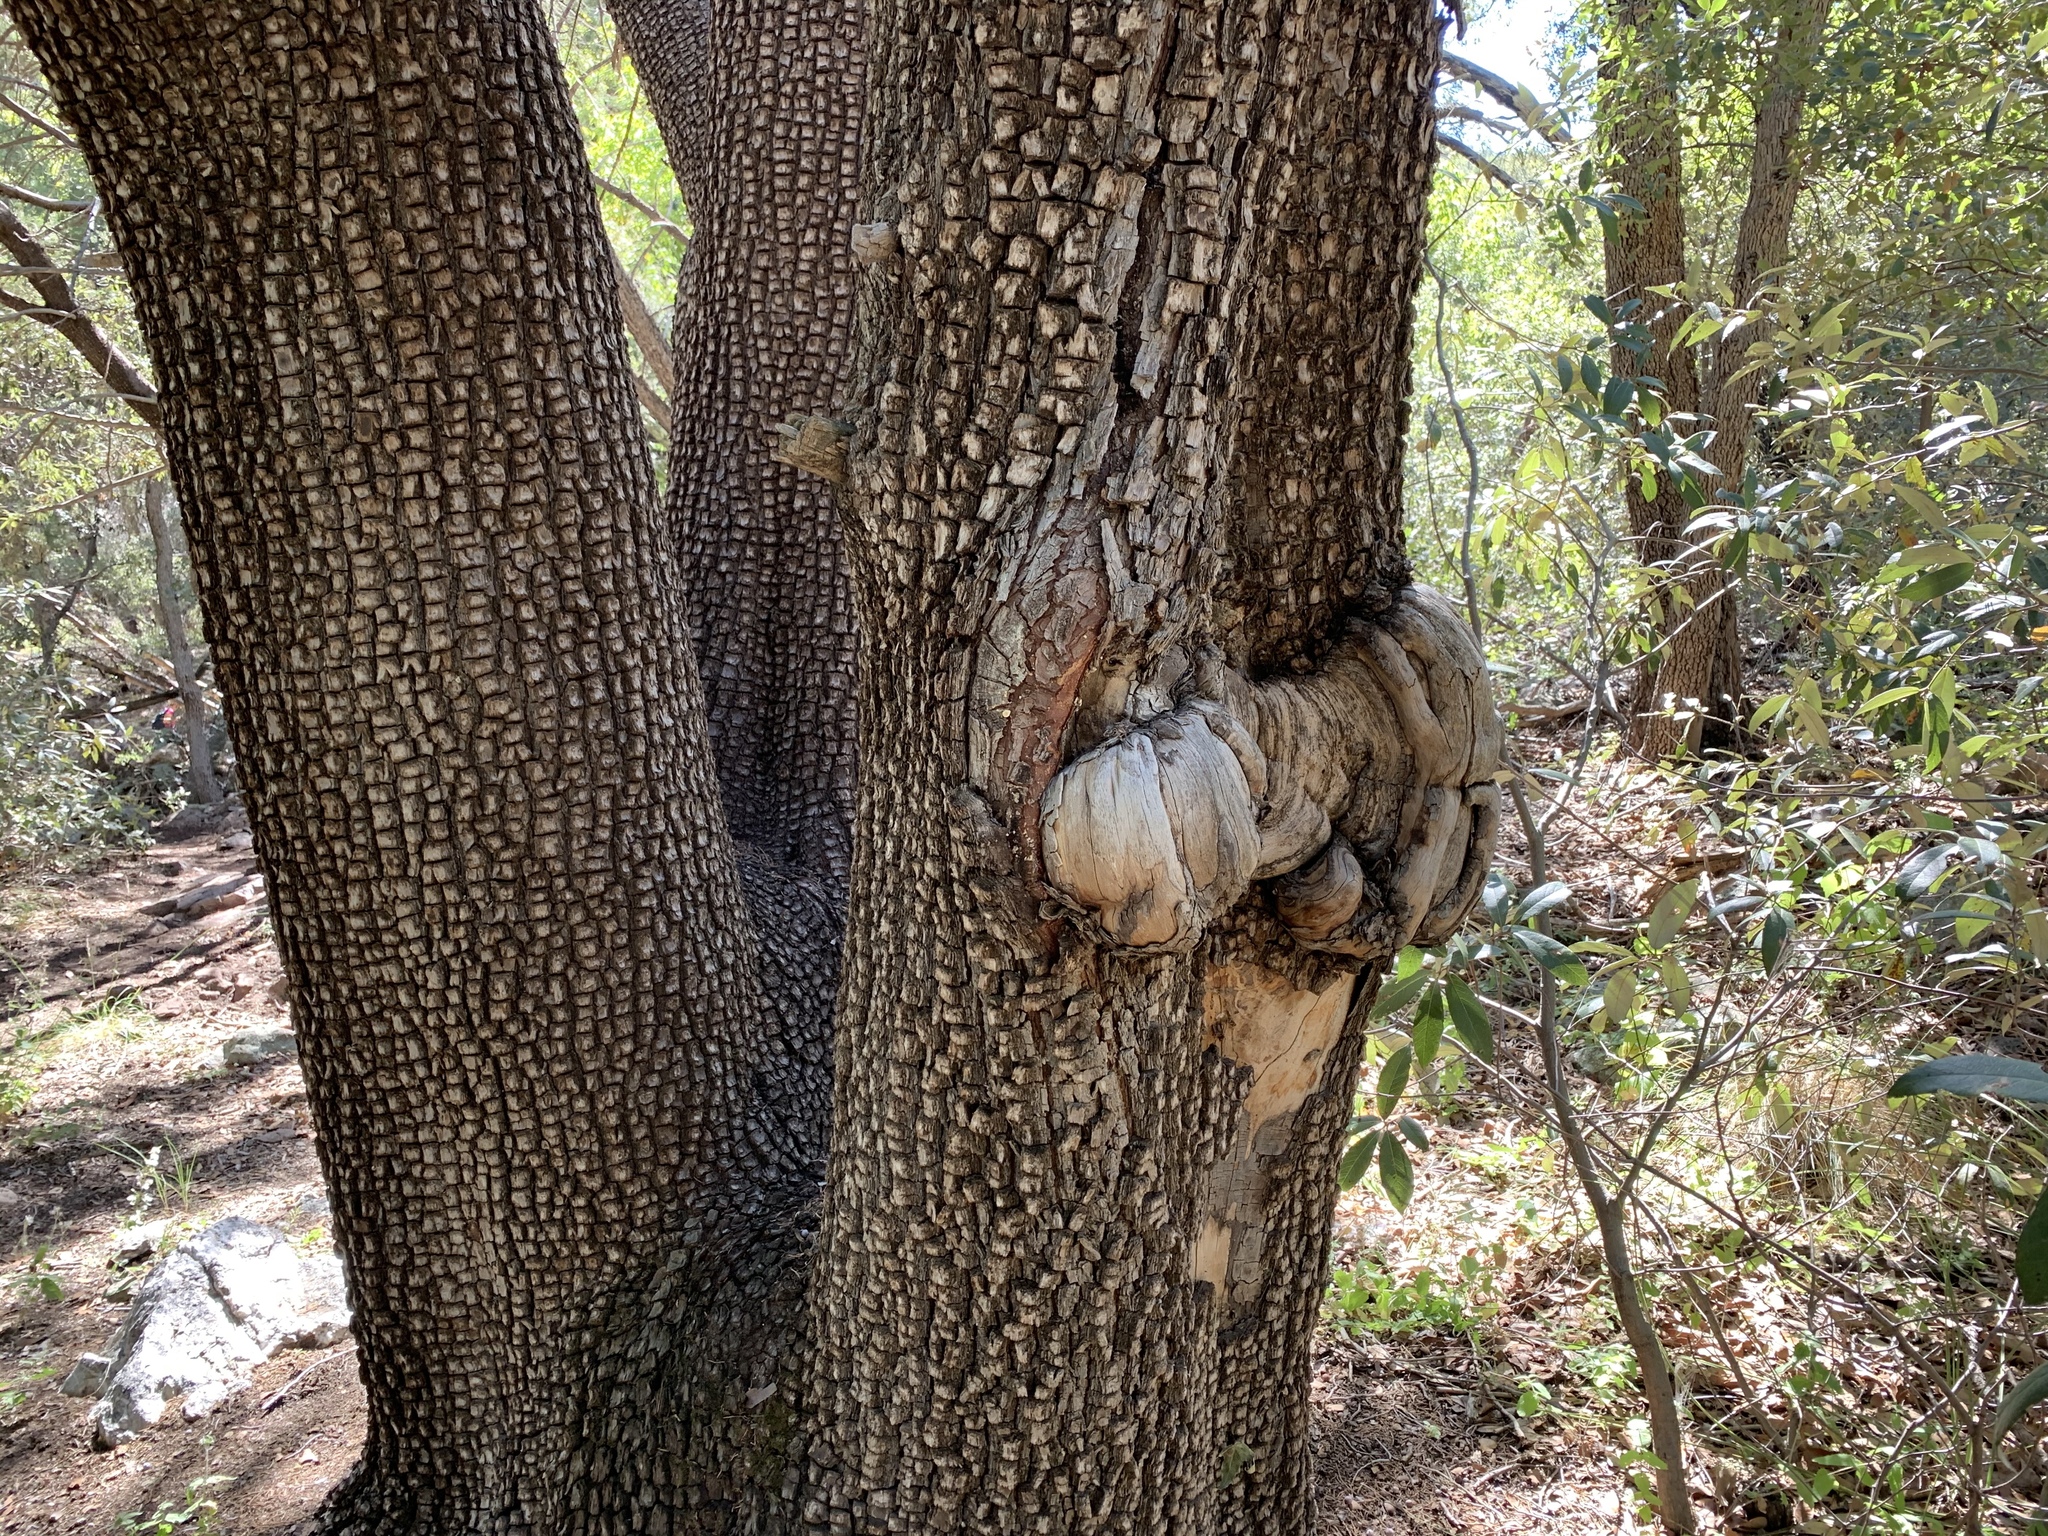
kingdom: Plantae
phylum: Tracheophyta
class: Pinopsida
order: Pinales
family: Cupressaceae
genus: Juniperus
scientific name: Juniperus deppeana
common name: Alligator juniper
